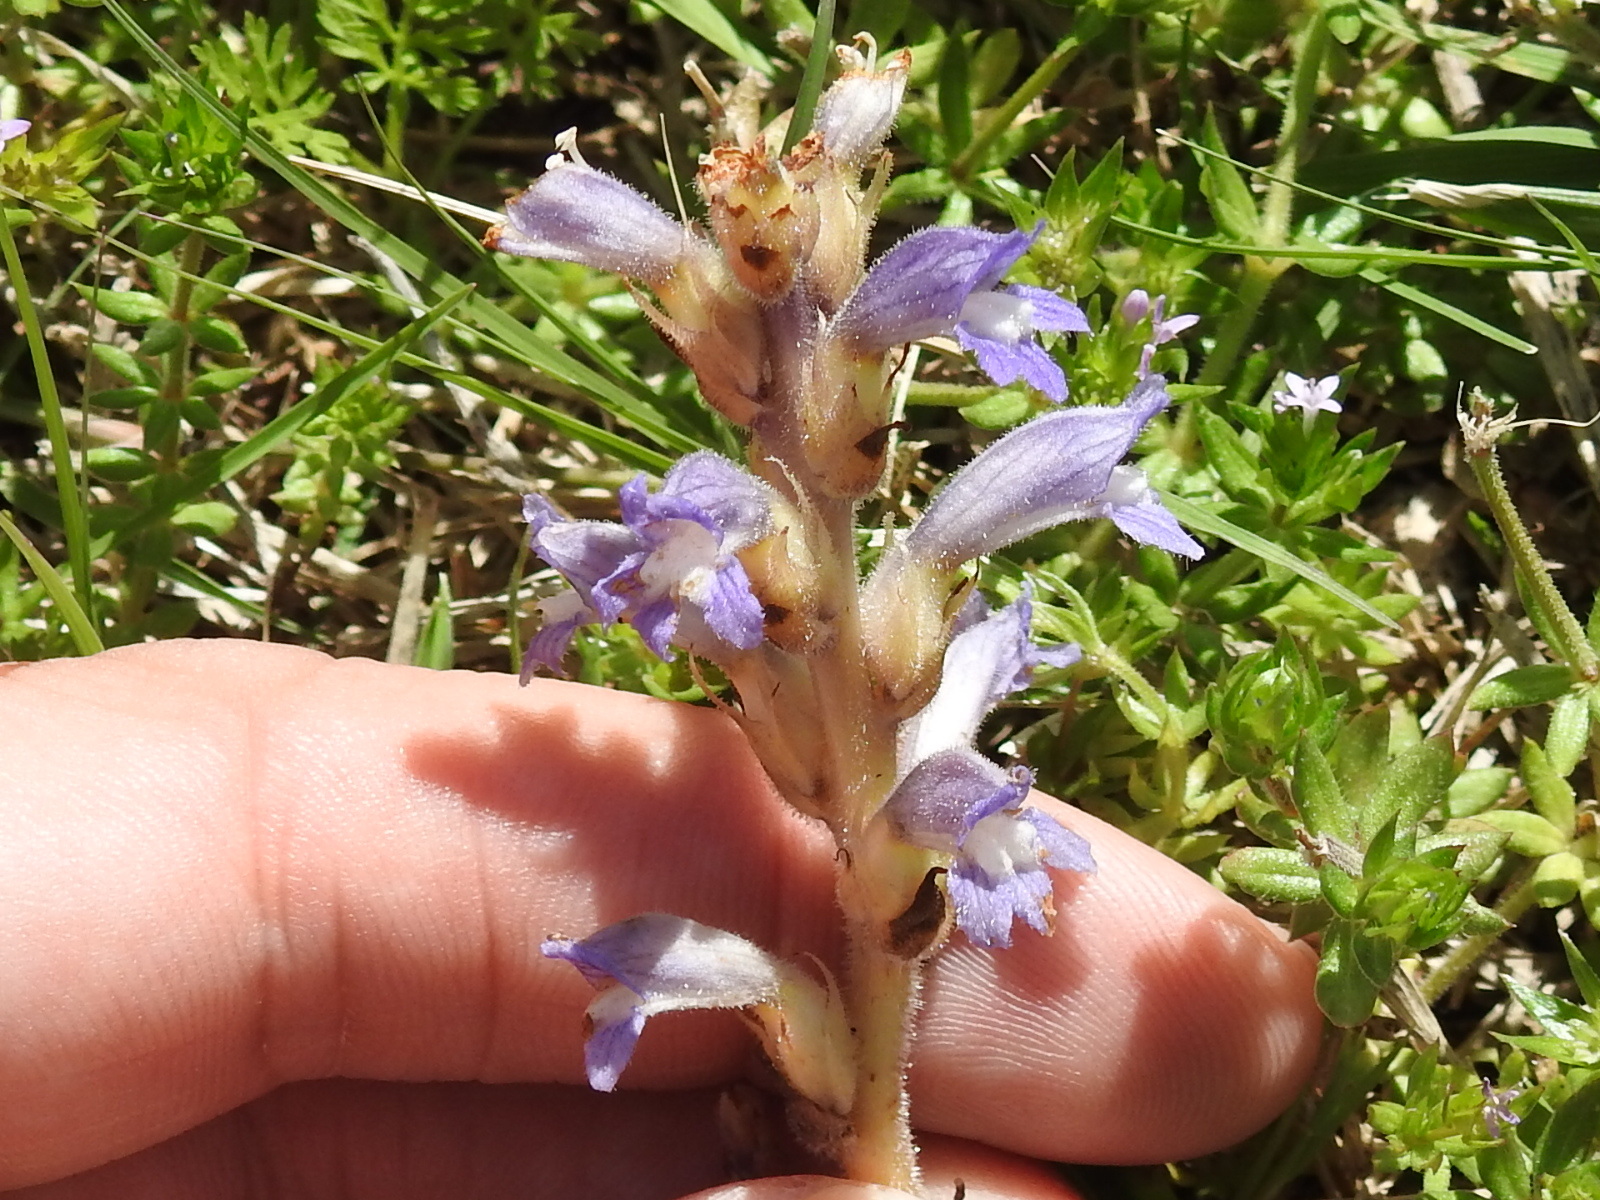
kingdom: Plantae
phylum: Tracheophyta
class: Magnoliopsida
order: Lamiales
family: Orobanchaceae
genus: Phelipanche
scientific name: Phelipanche ramosa
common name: Branched broomrape
